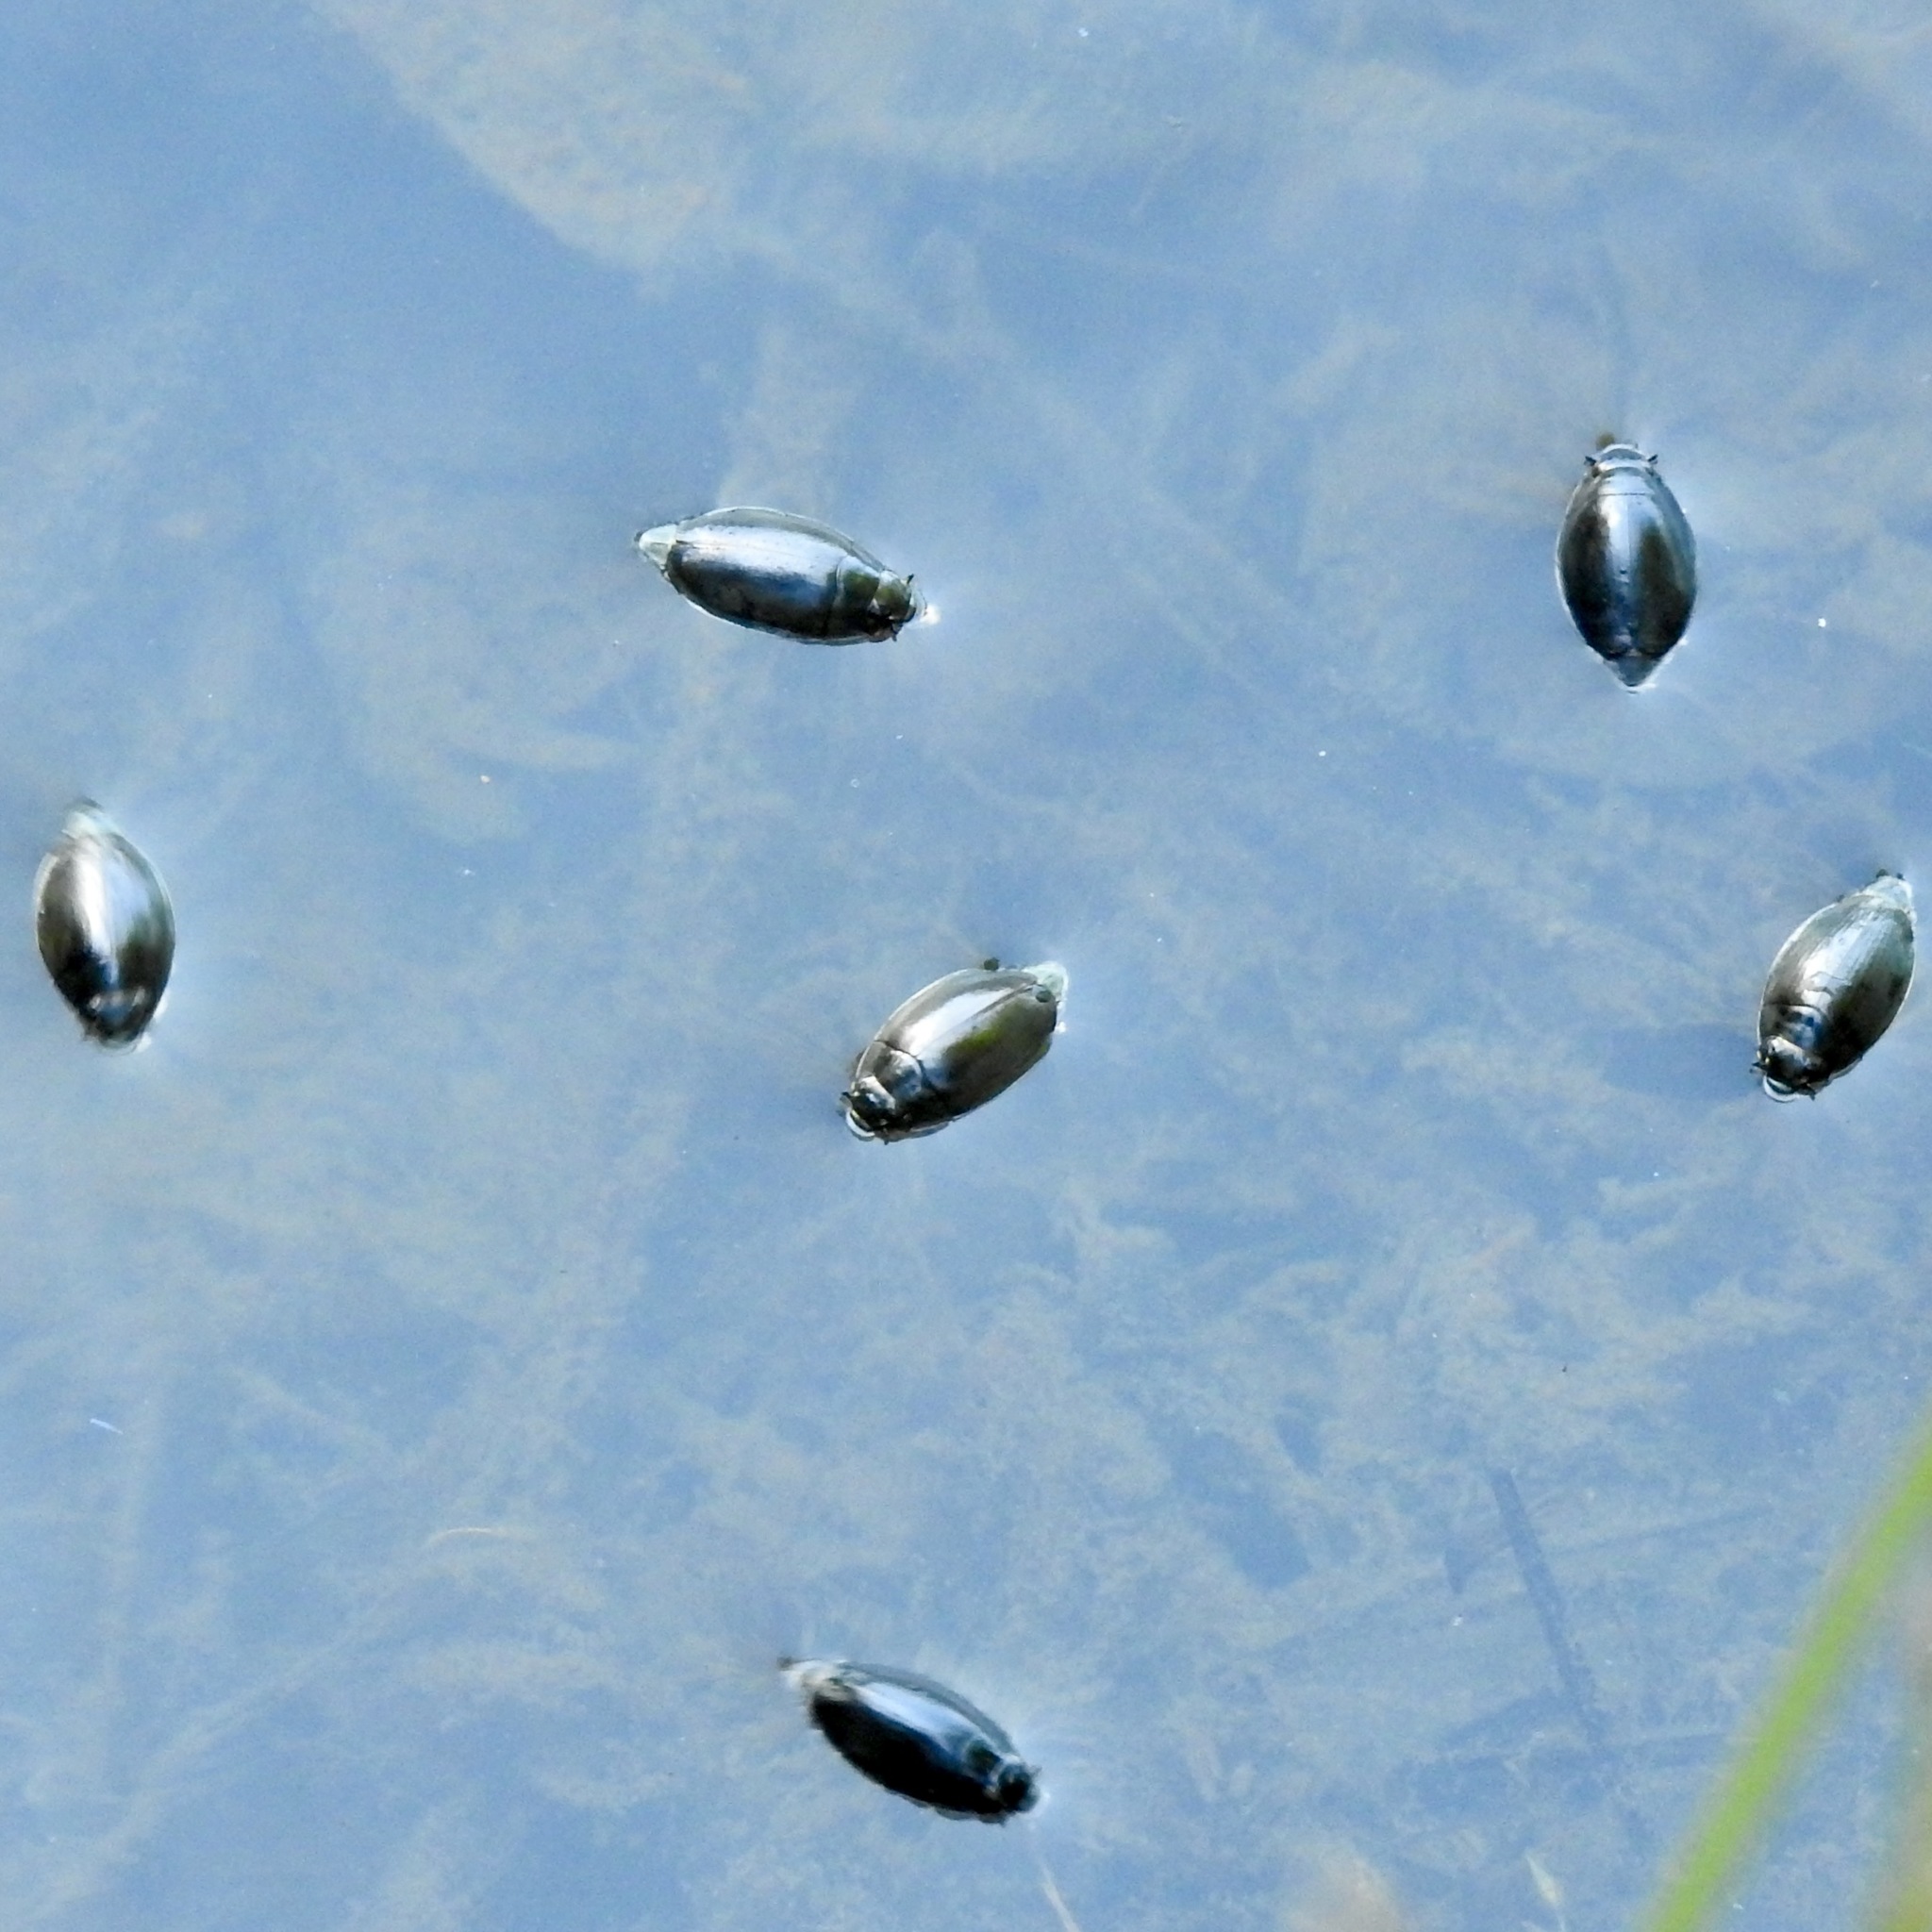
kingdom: Animalia
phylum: Arthropoda
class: Insecta
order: Coleoptera
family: Gyrinidae
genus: Dineutus
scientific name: Dineutus
